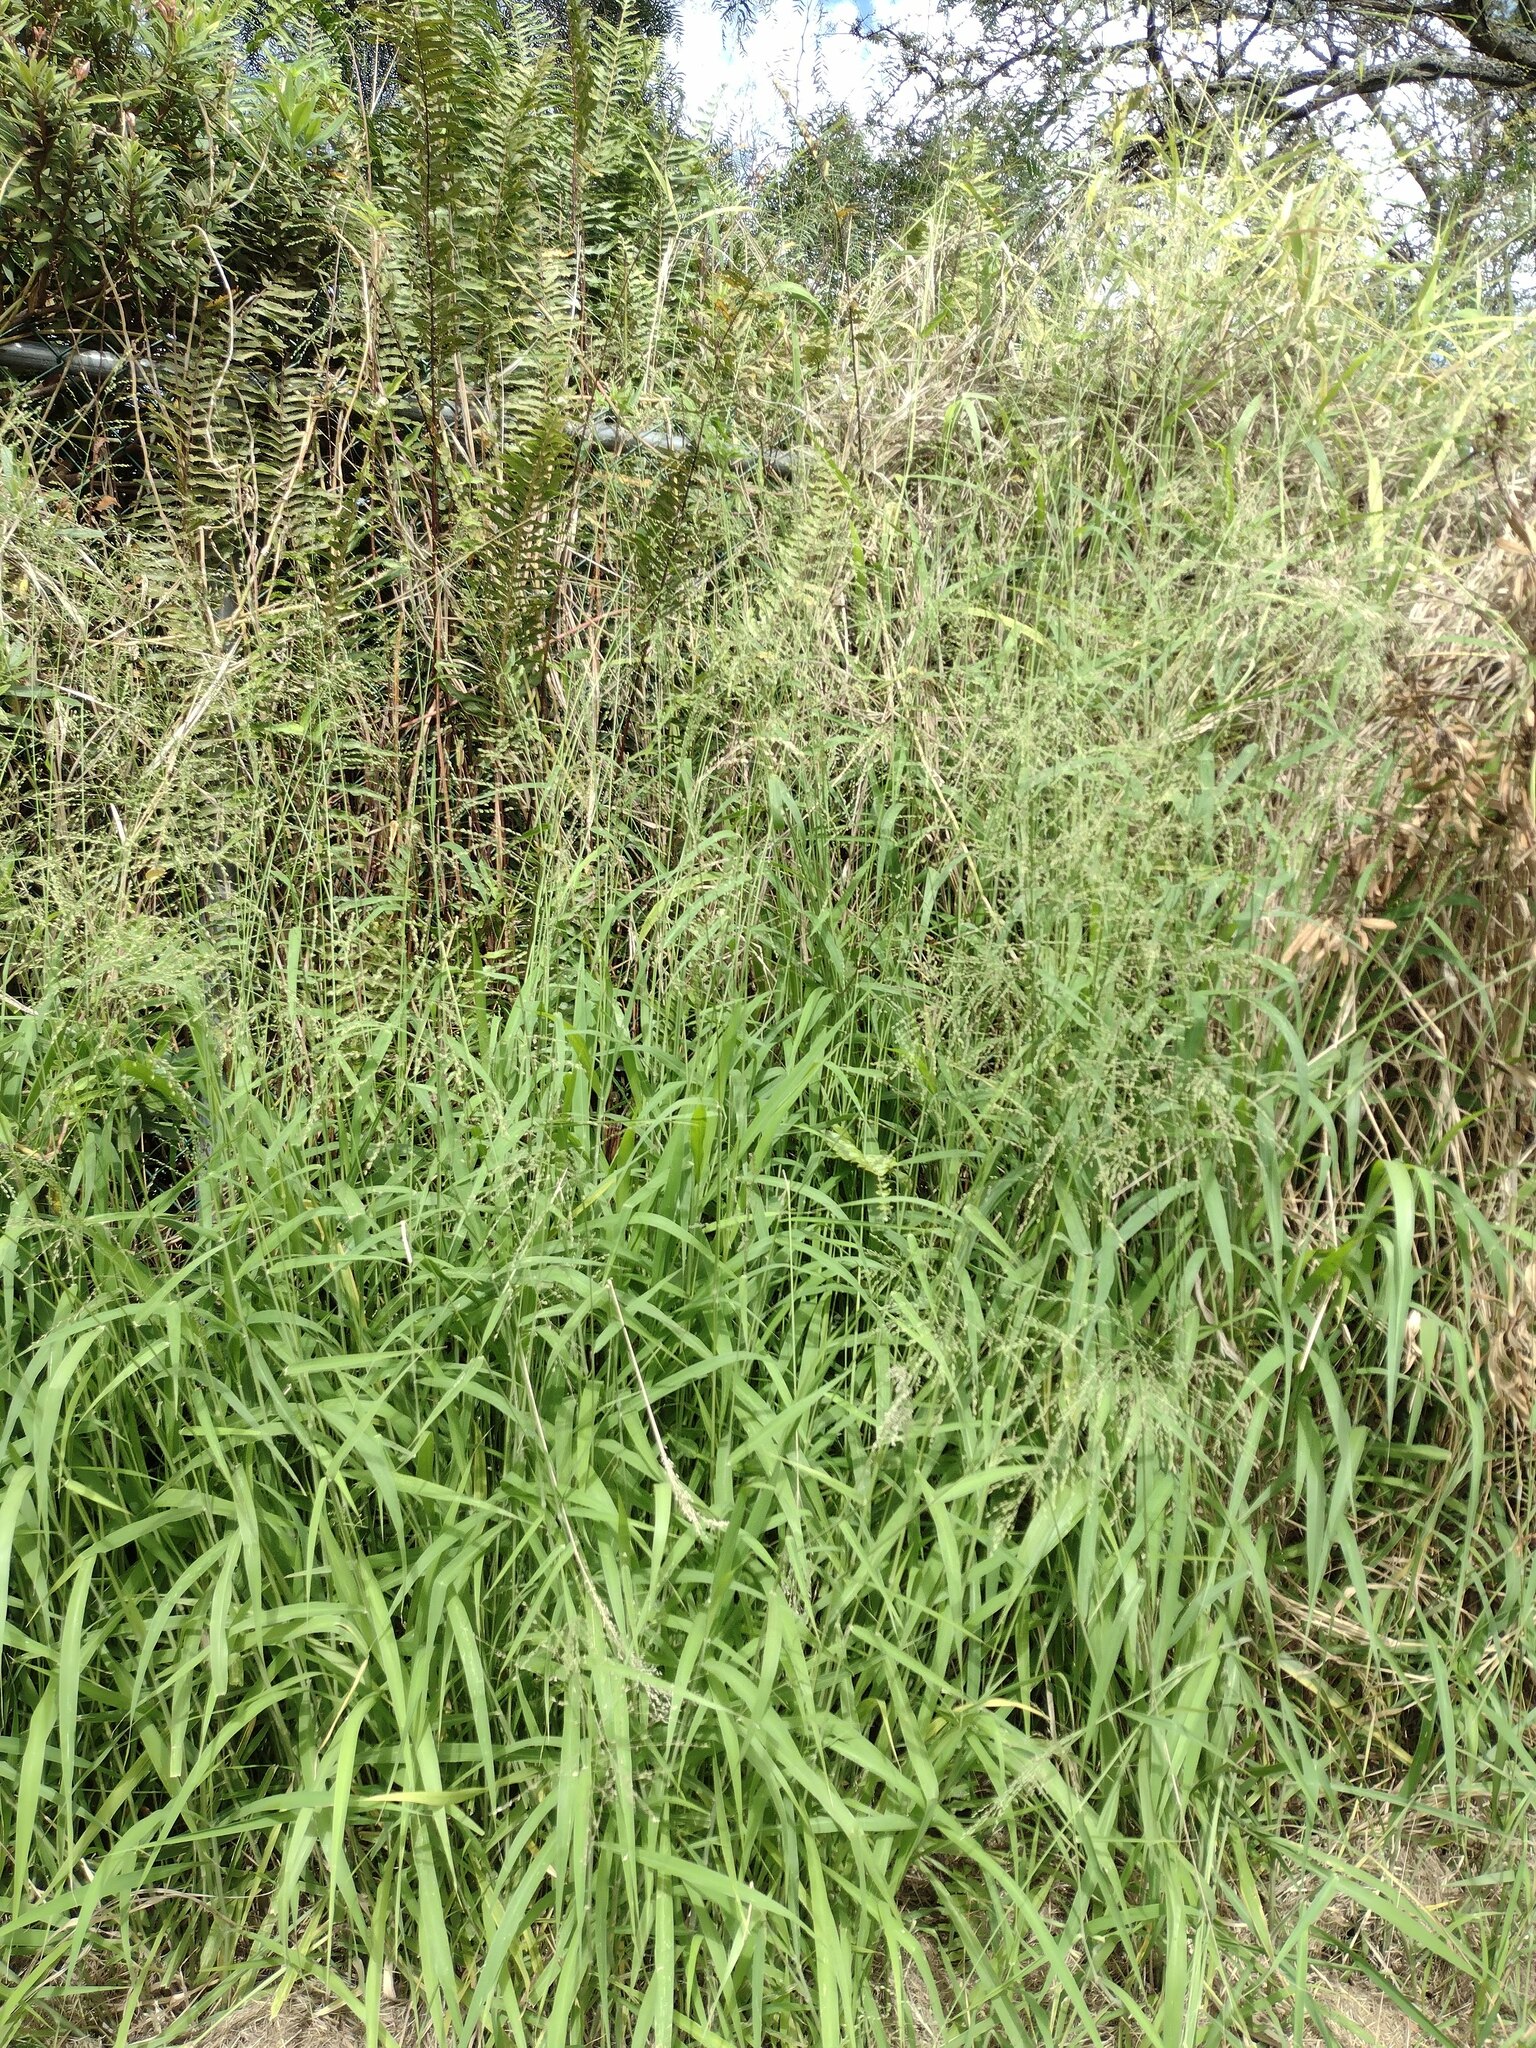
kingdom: Plantae
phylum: Tracheophyta
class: Liliopsida
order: Poales
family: Poaceae
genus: Megathyrsus
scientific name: Megathyrsus maximus
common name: Guineagrass
